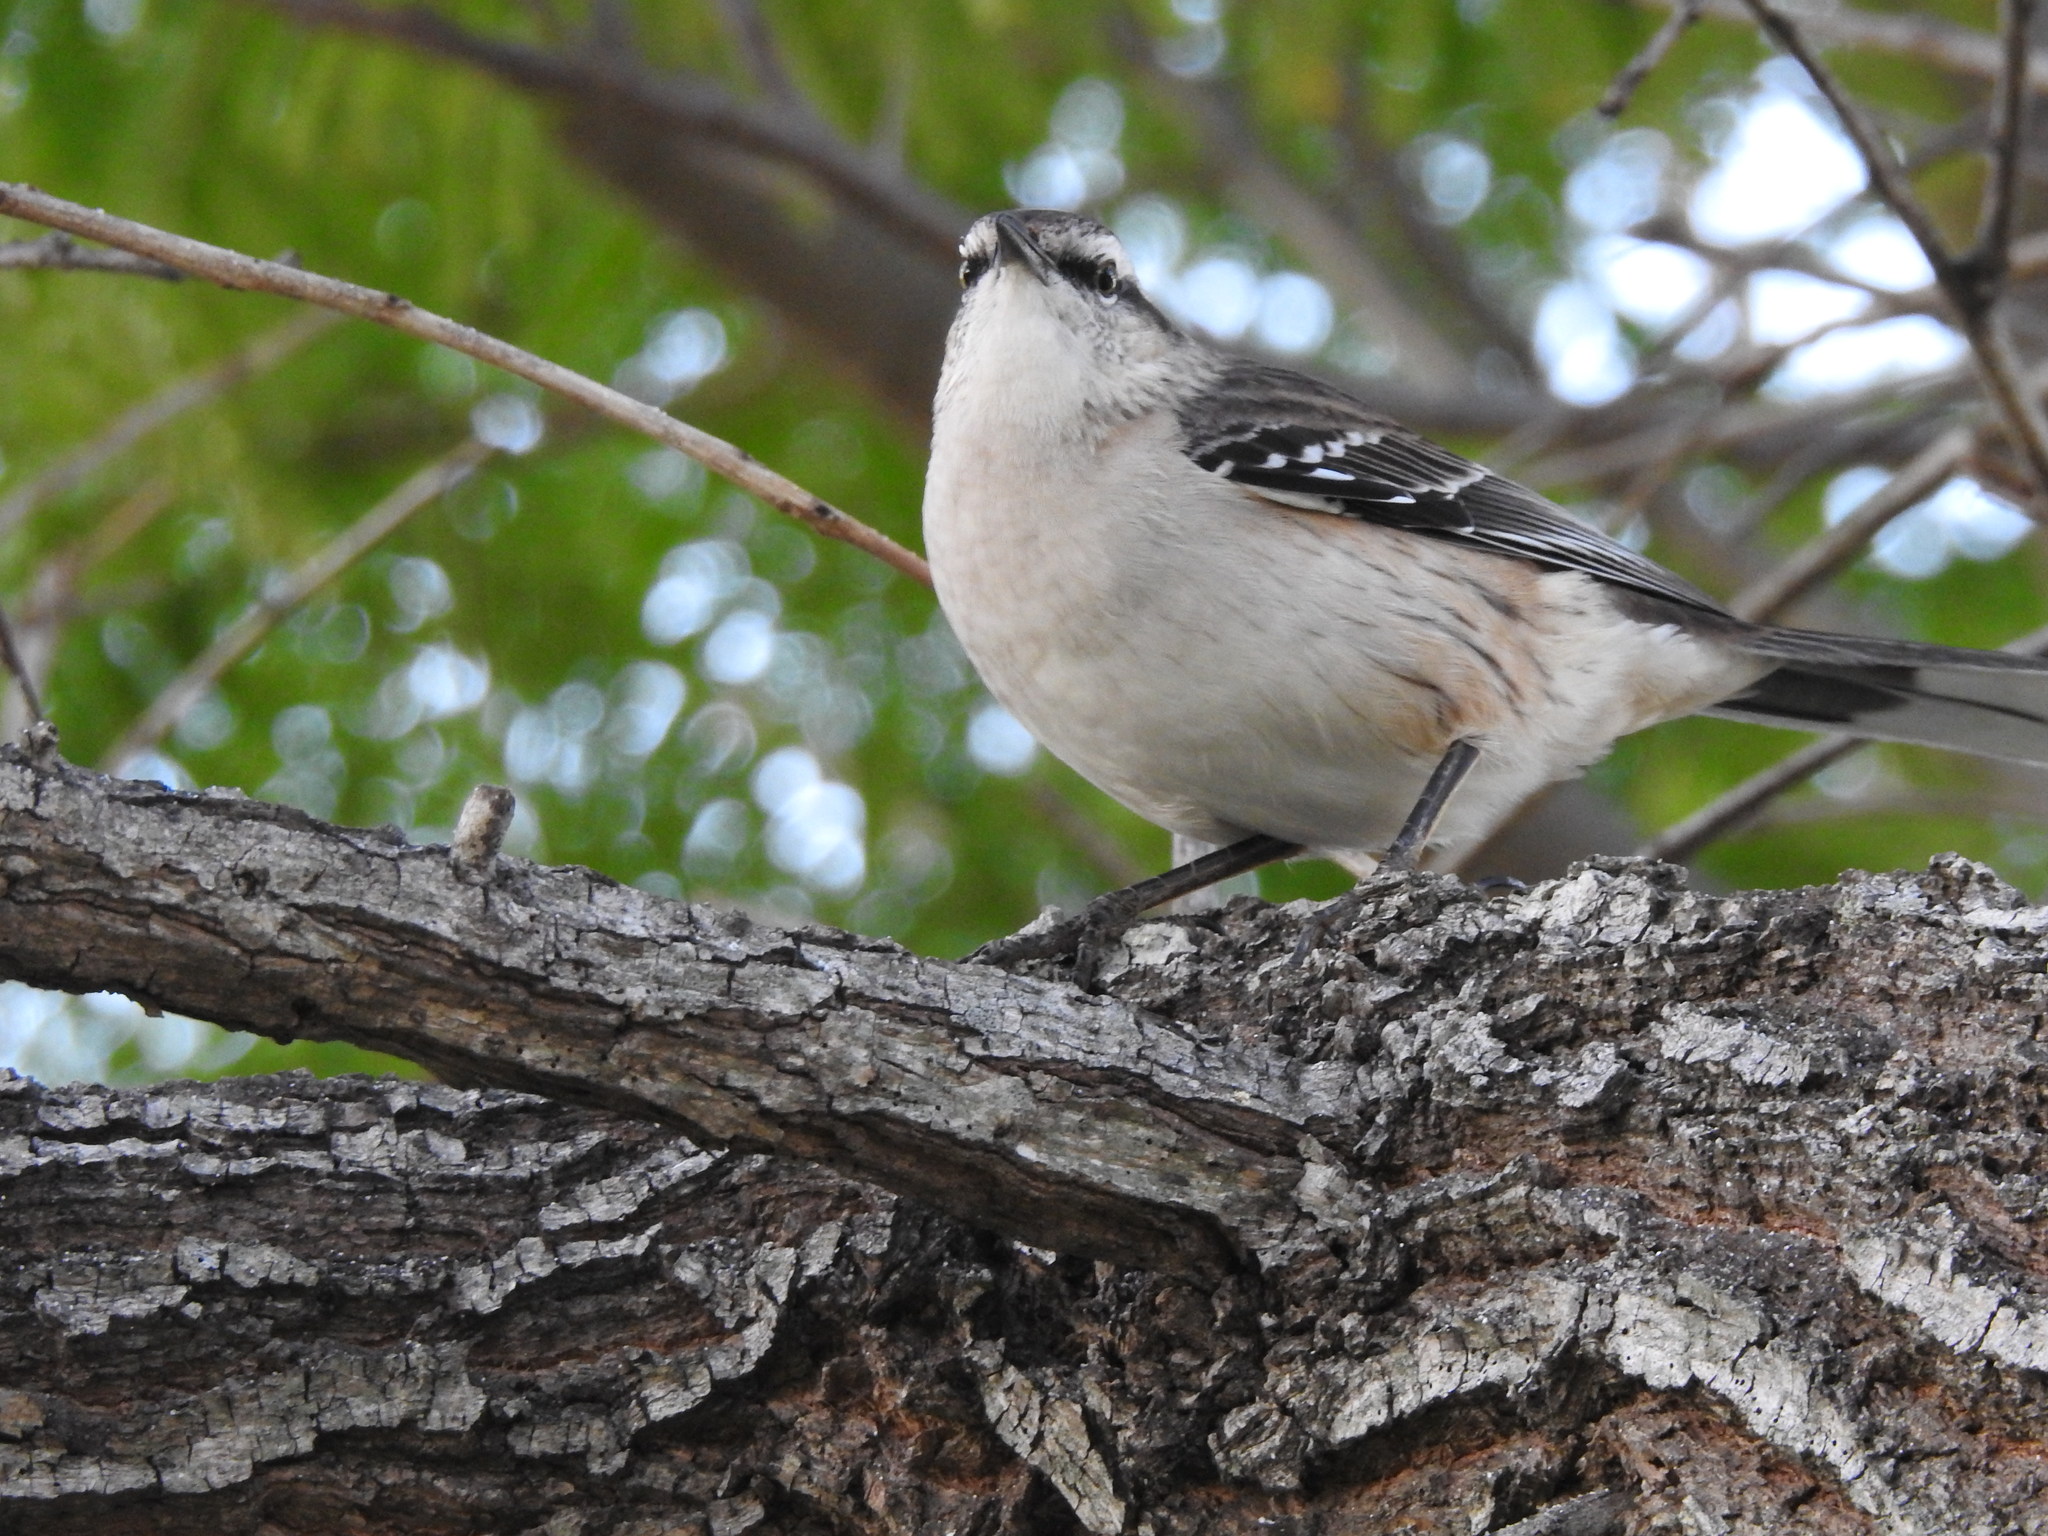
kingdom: Animalia
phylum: Chordata
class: Aves
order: Passeriformes
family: Mimidae
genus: Mimus
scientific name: Mimus saturninus
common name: Chalk-browed mockingbird
